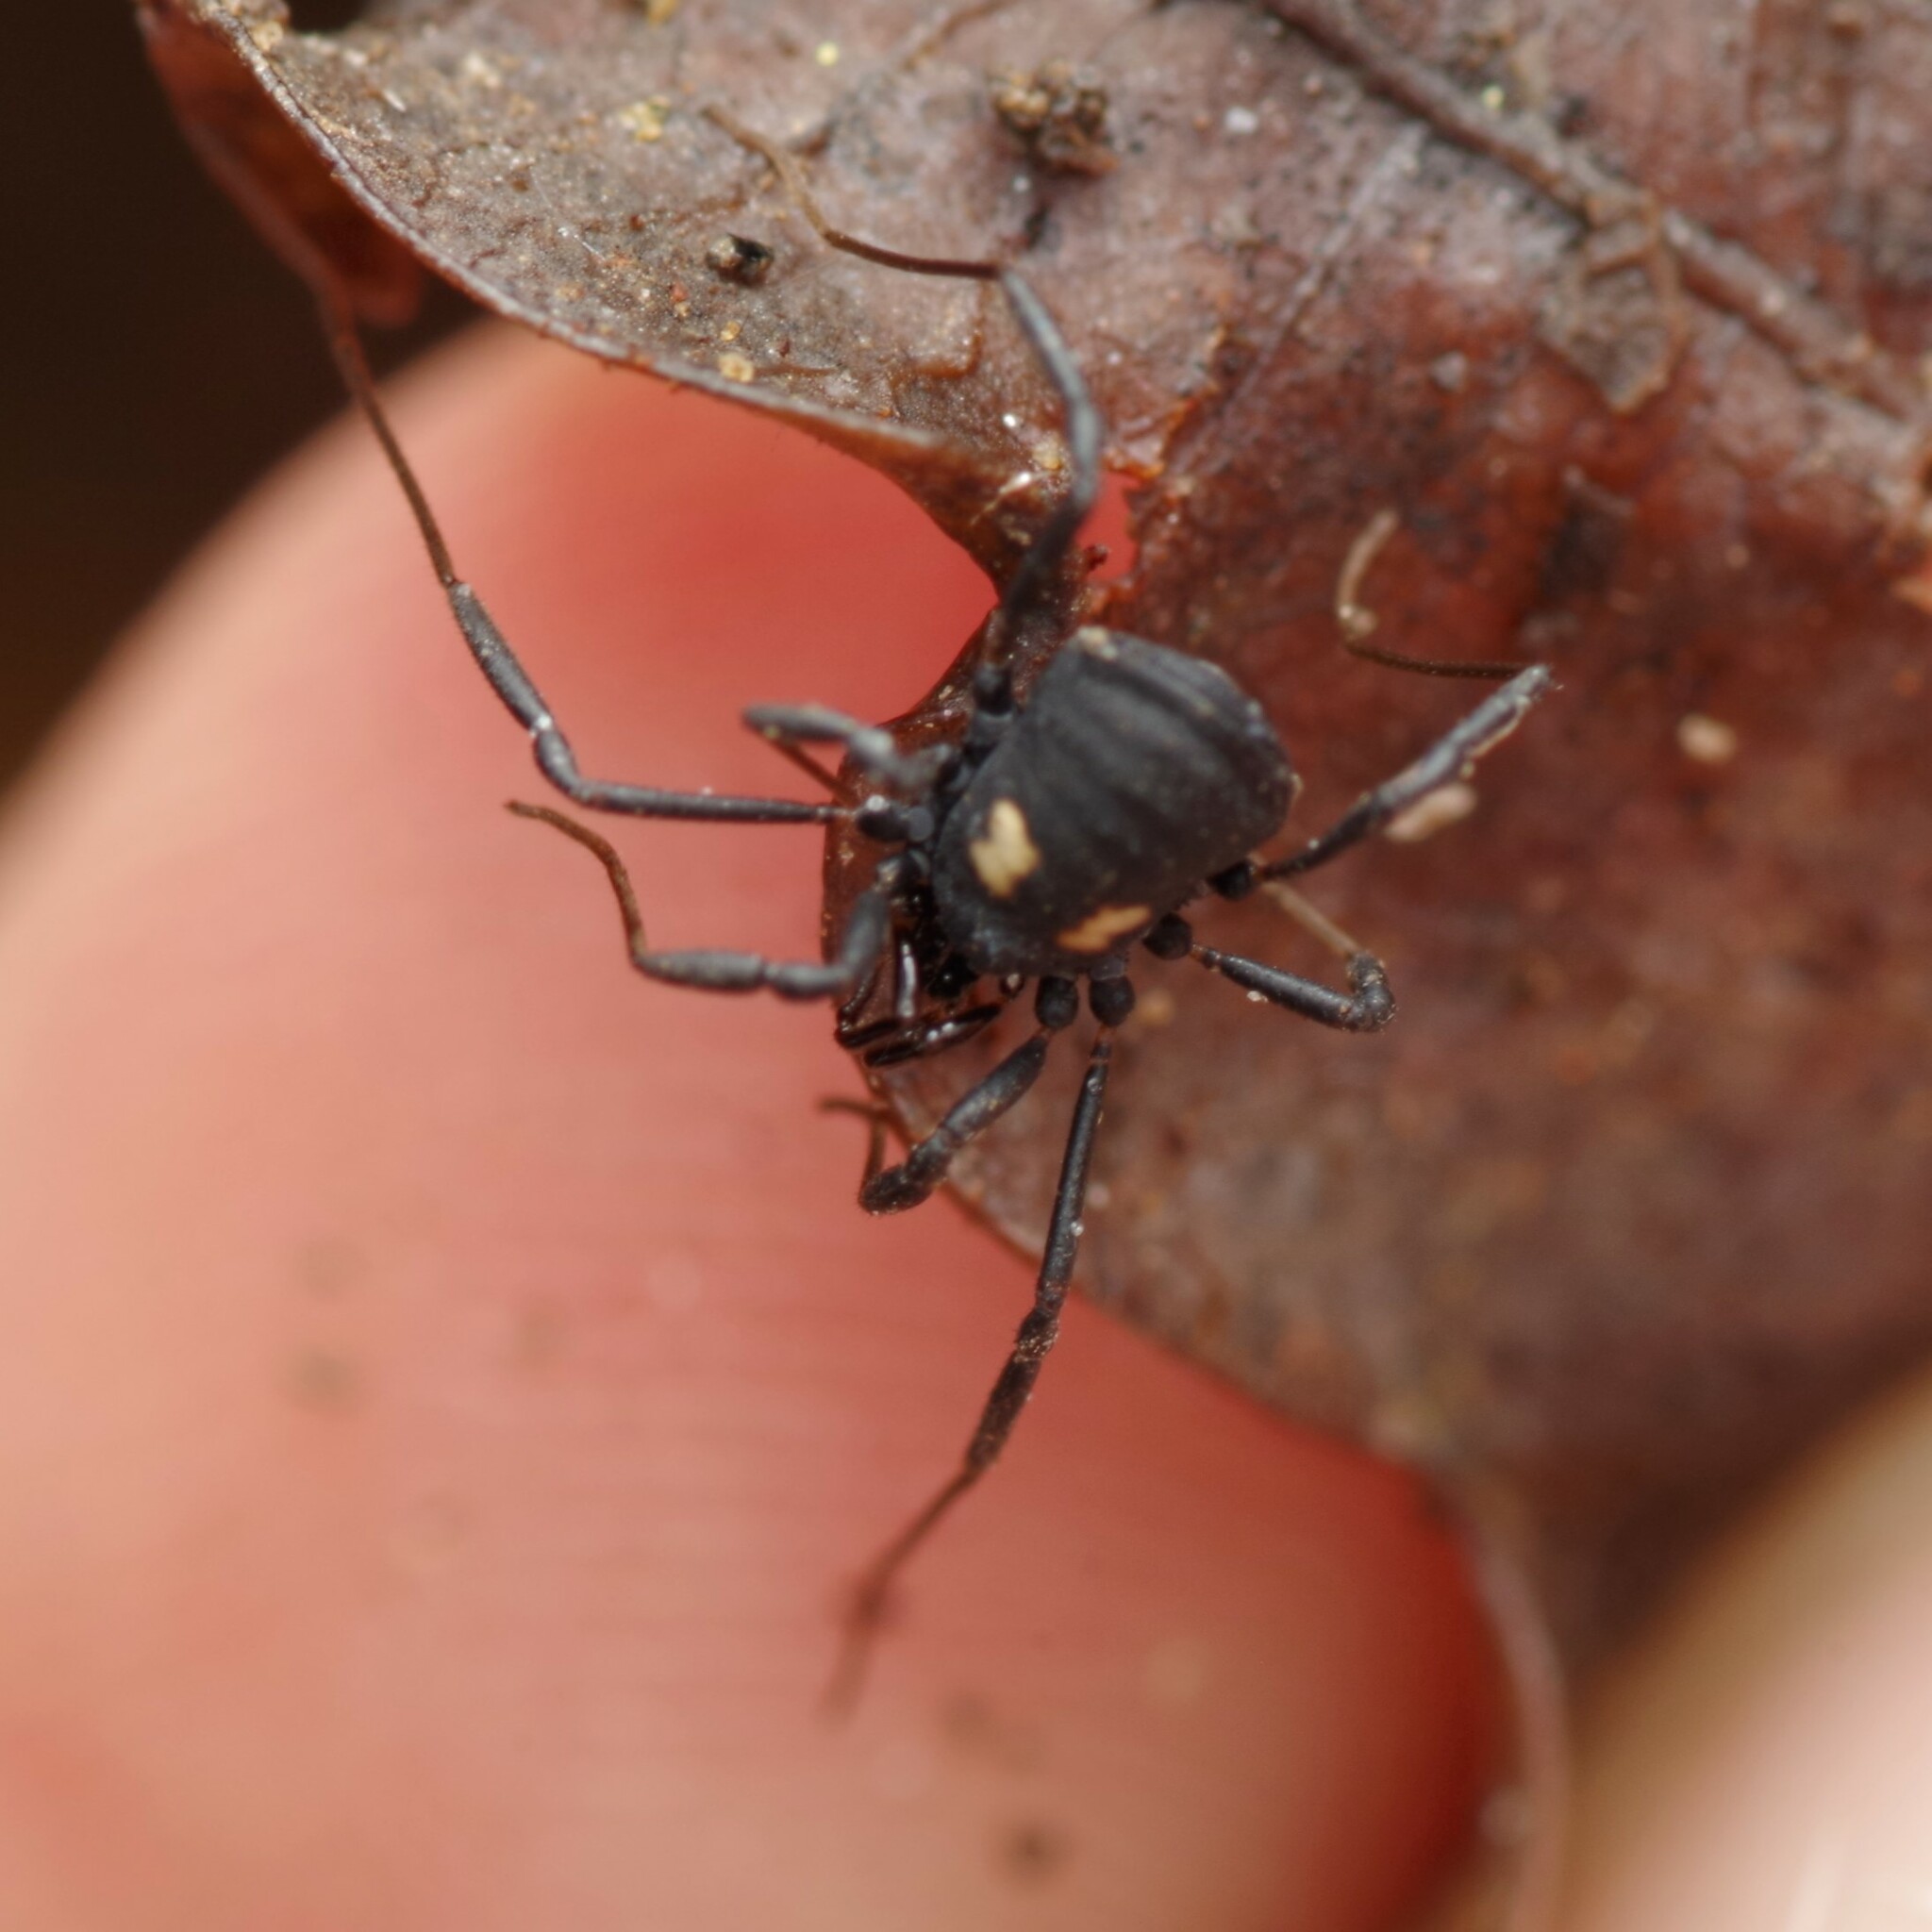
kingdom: Animalia
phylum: Arthropoda
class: Arachnida
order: Opiliones
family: Nemastomatidae
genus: Nemastoma
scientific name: Nemastoma bimaculatum
